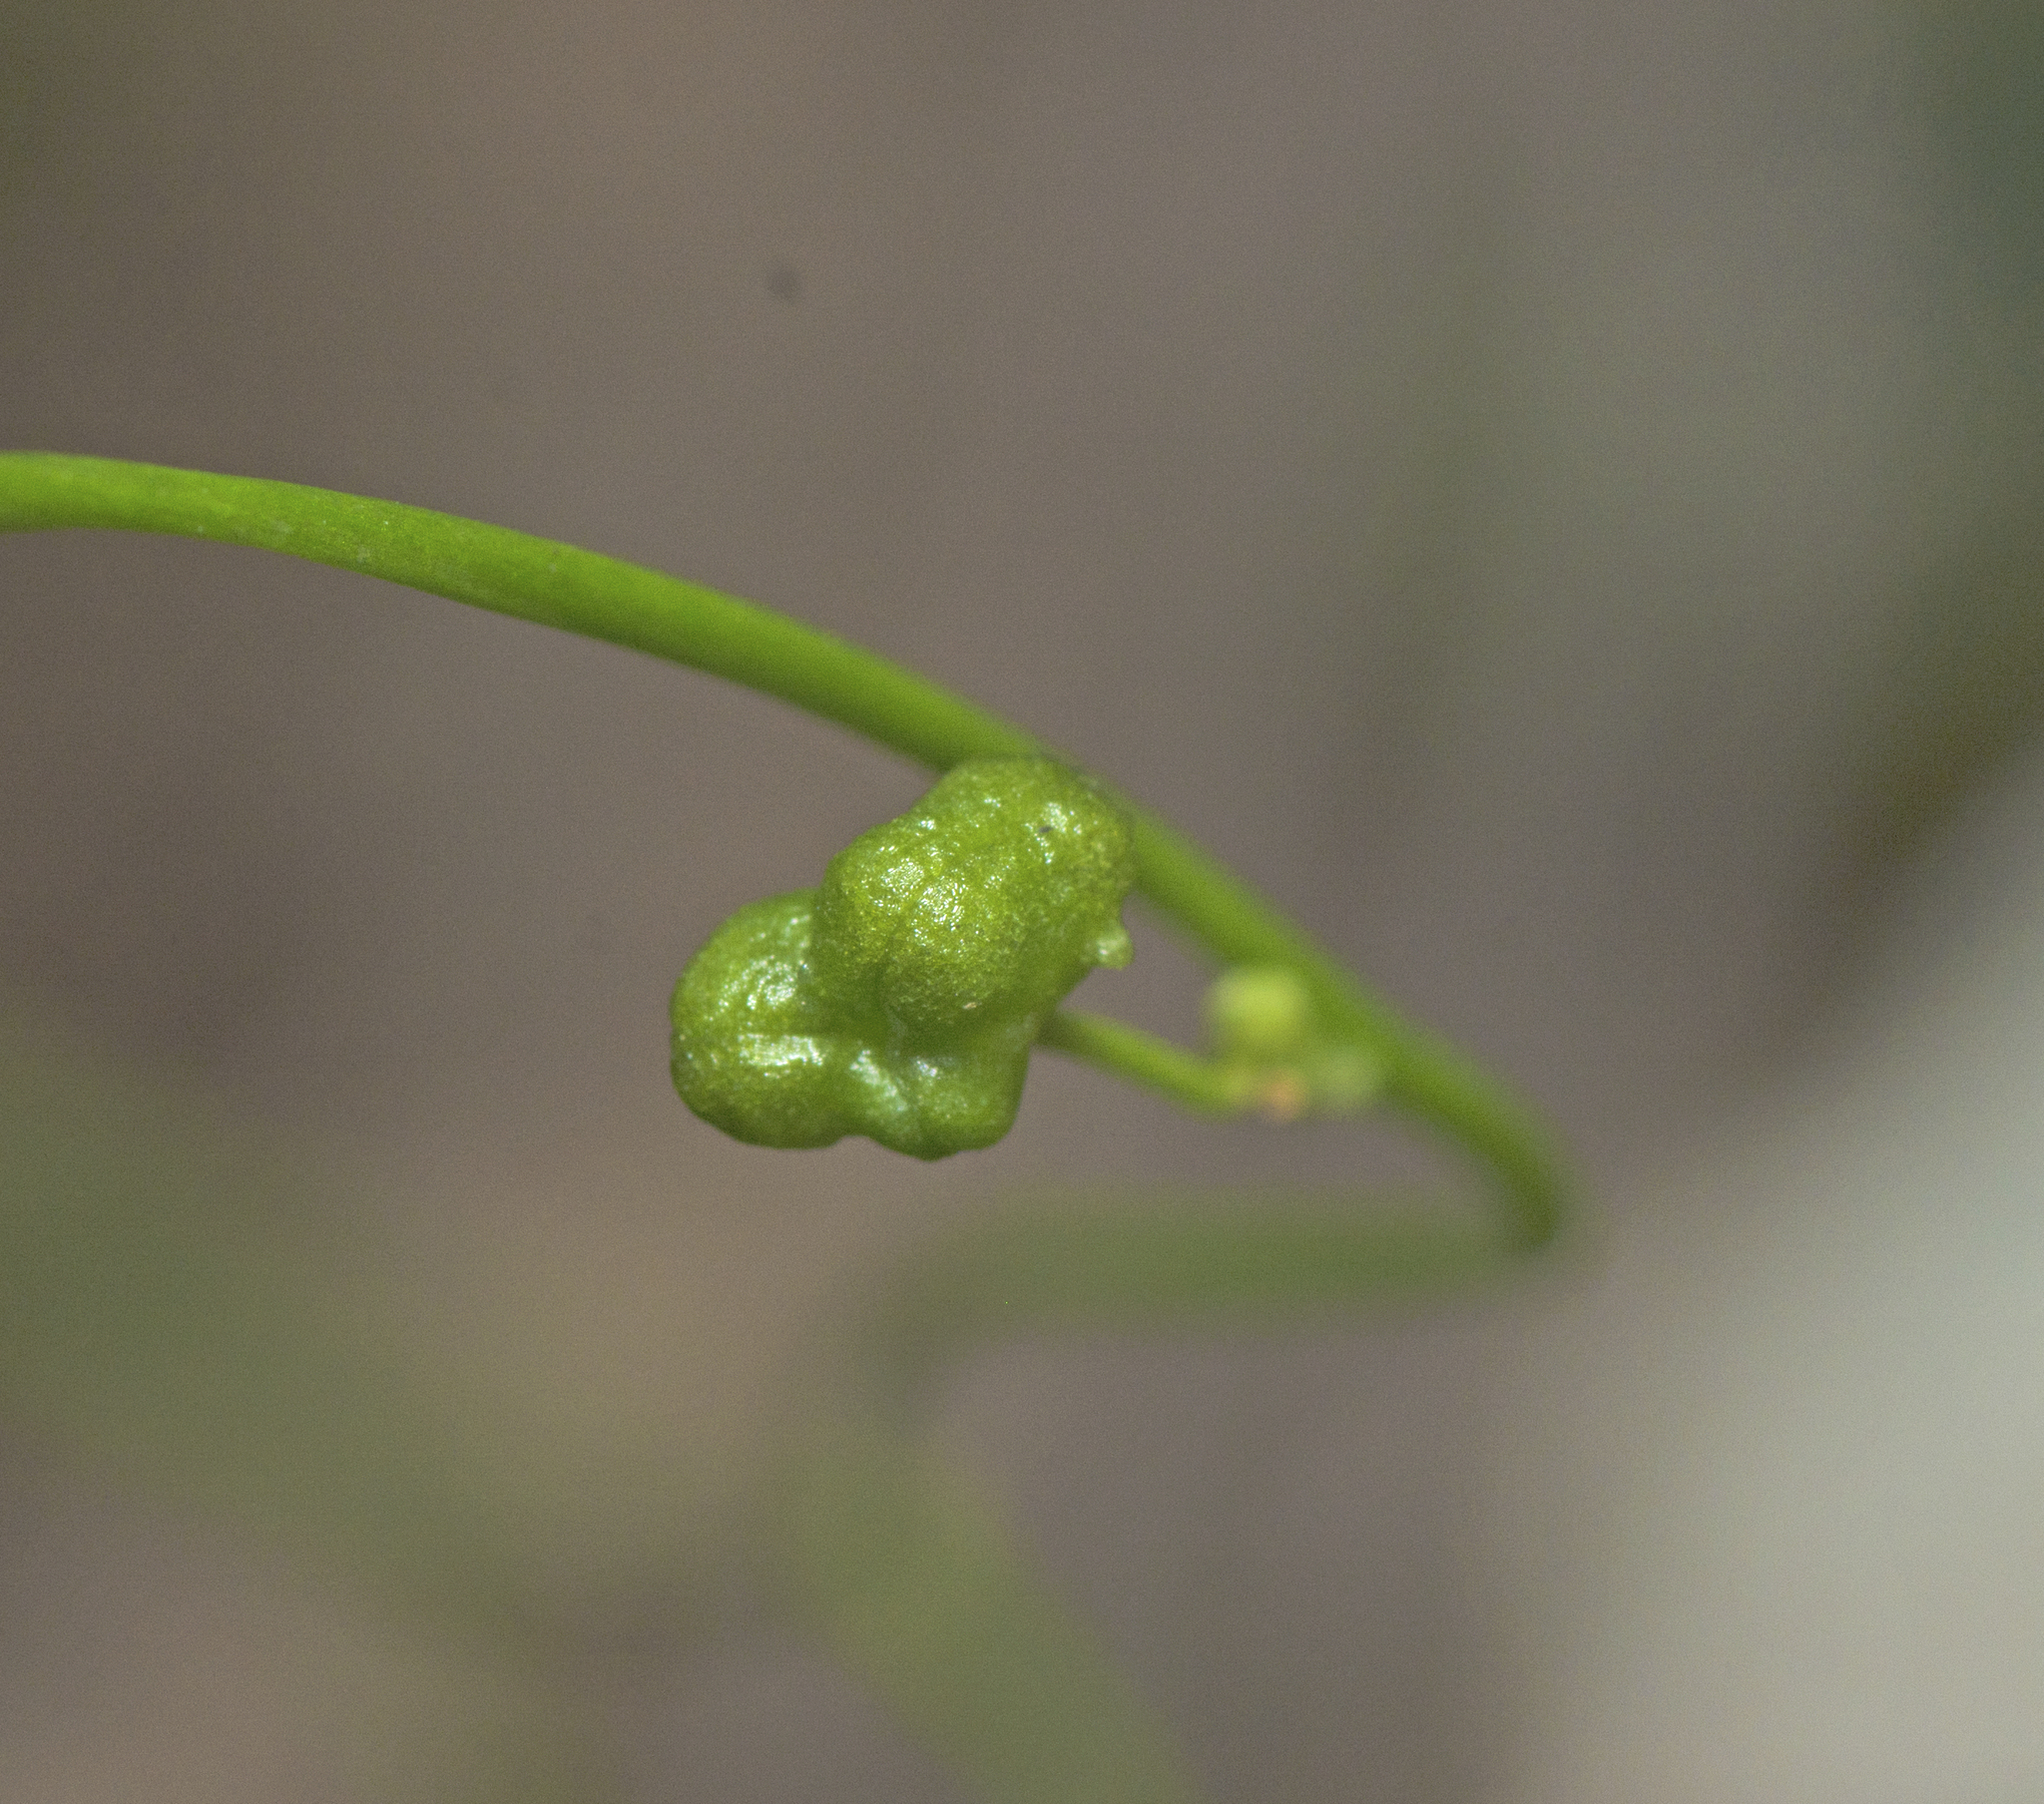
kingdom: Plantae
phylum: Tracheophyta
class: Liliopsida
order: Asparagales
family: Asphodelaceae
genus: Caesia
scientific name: Caesia parviflora
